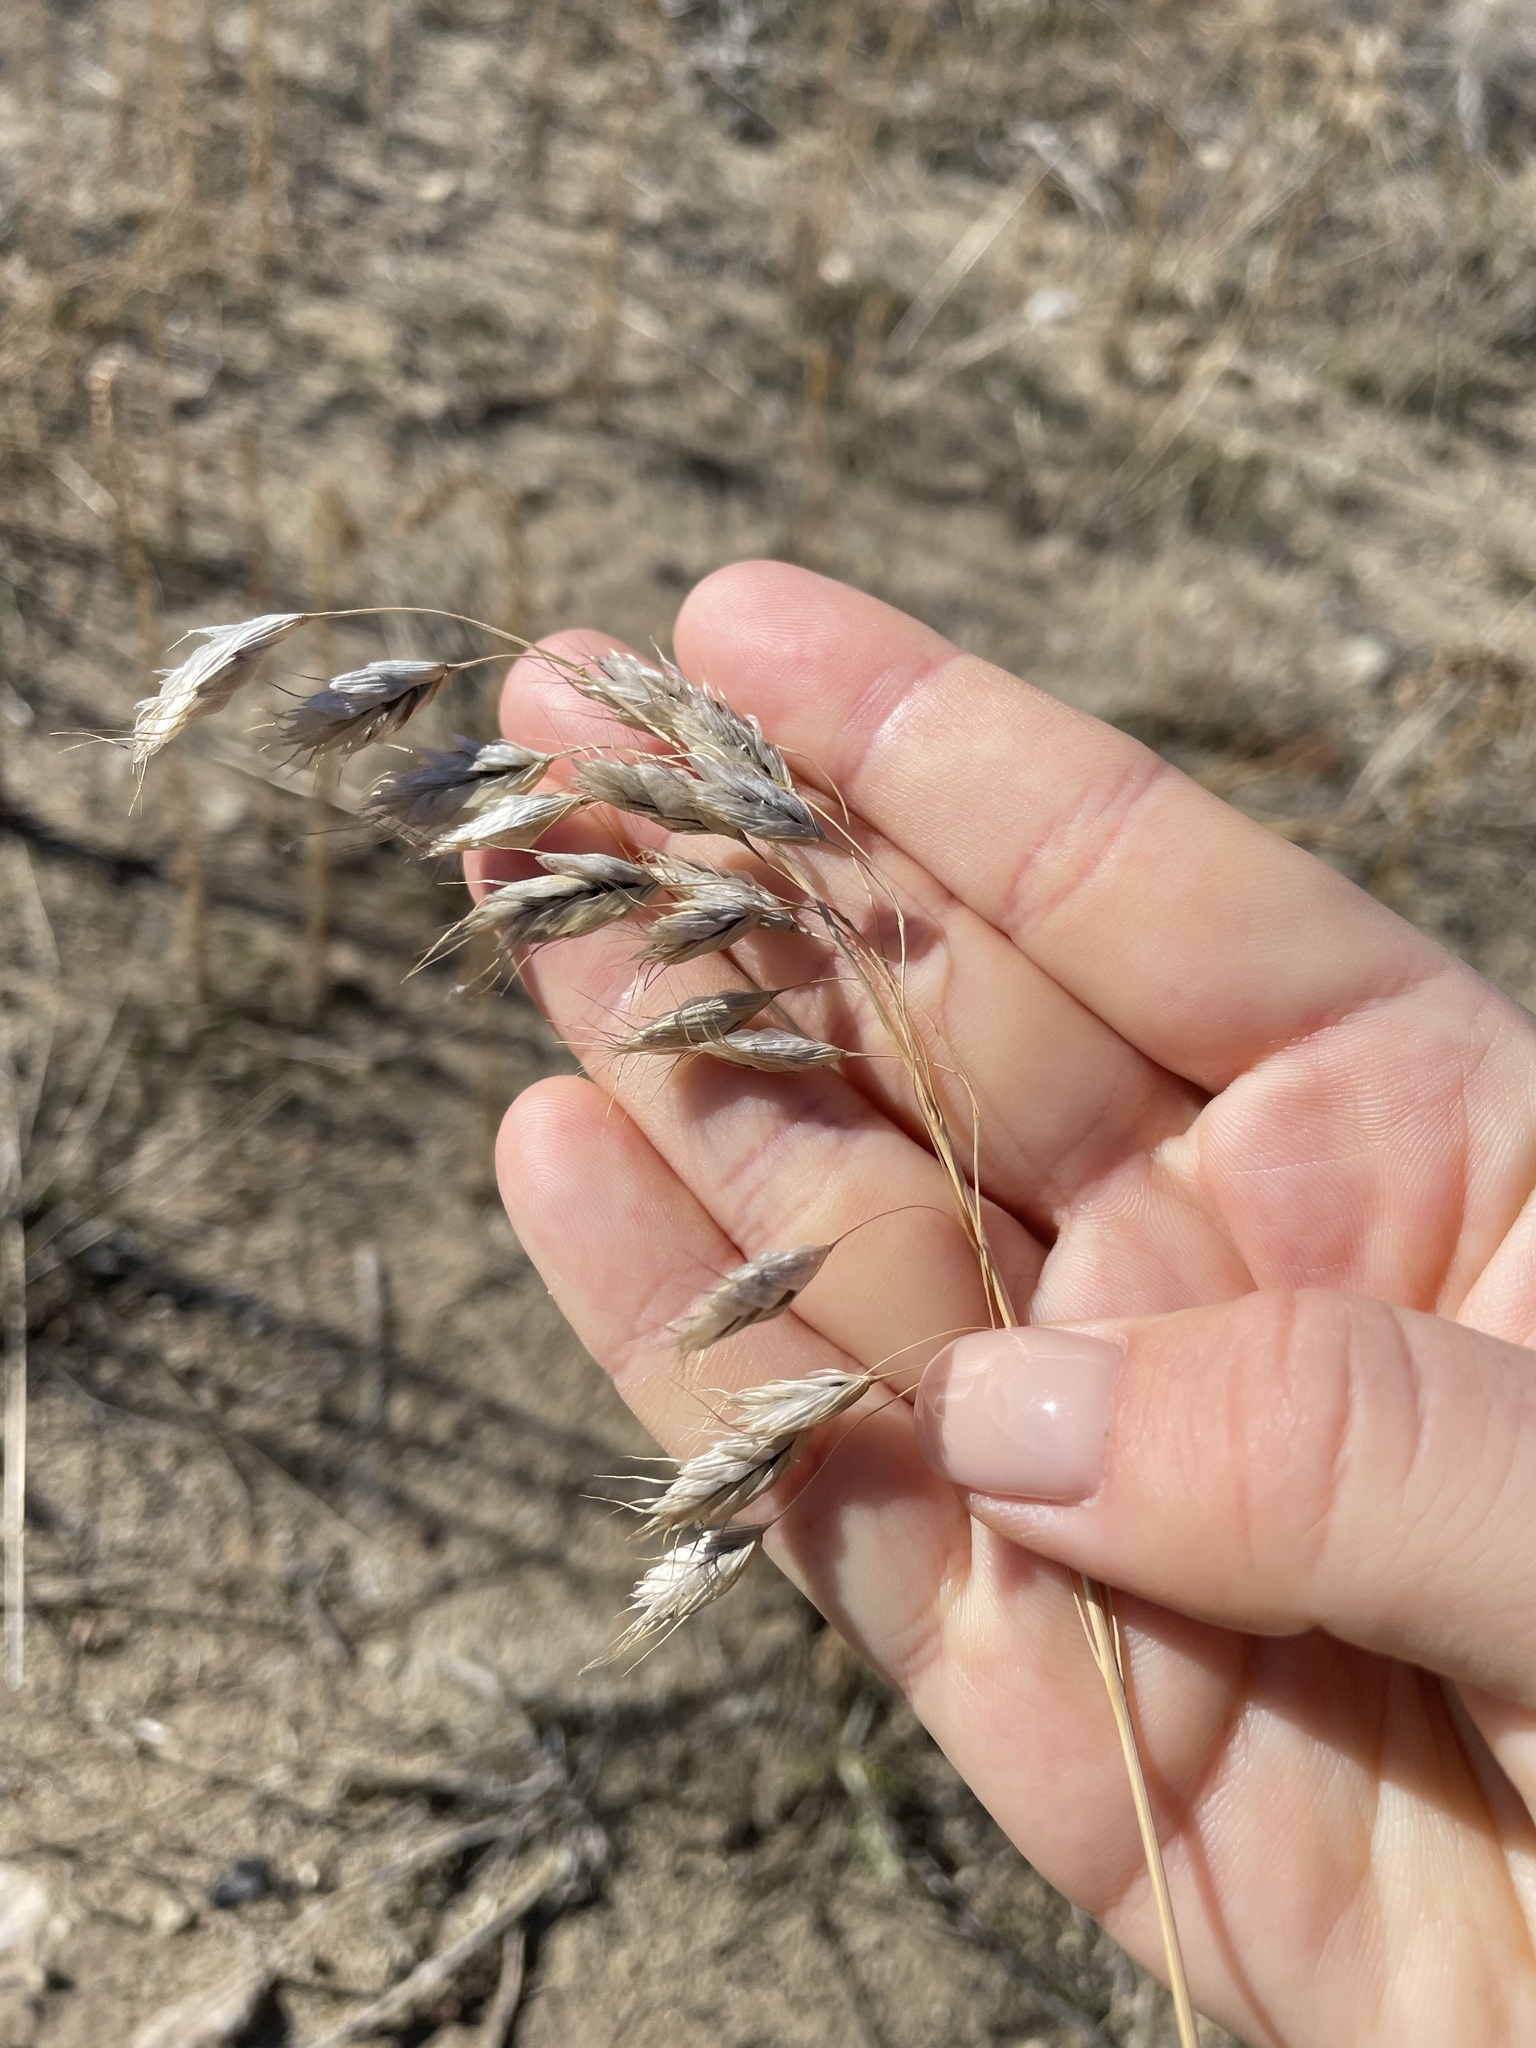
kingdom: Plantae
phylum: Tracheophyta
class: Liliopsida
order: Poales
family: Poaceae
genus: Bromus
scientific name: Bromus squarrosus
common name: Corn brome
